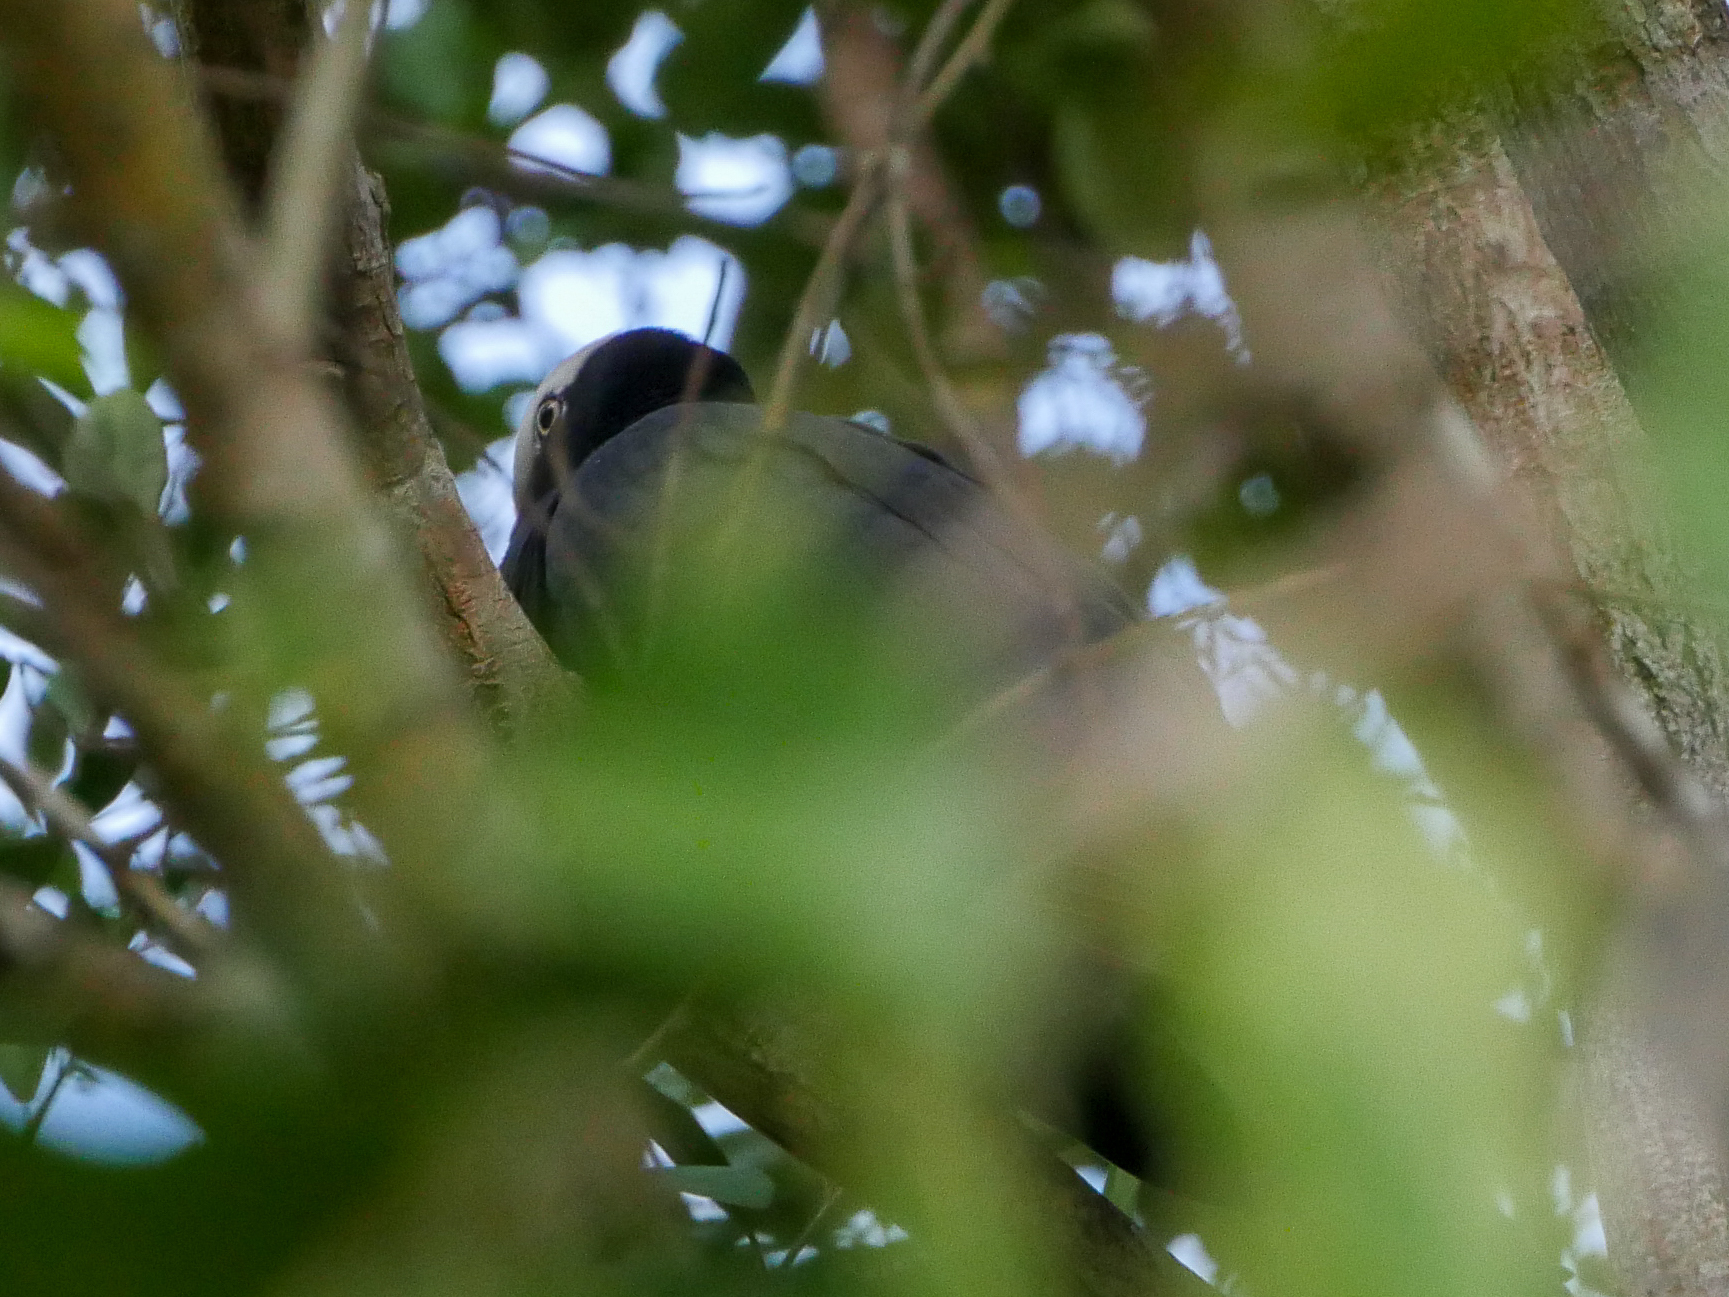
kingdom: Animalia
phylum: Chordata
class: Aves
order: Columbiformes
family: Columbidae
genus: Patagioenas
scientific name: Patagioenas leucocephala
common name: White-crowned pigeon
